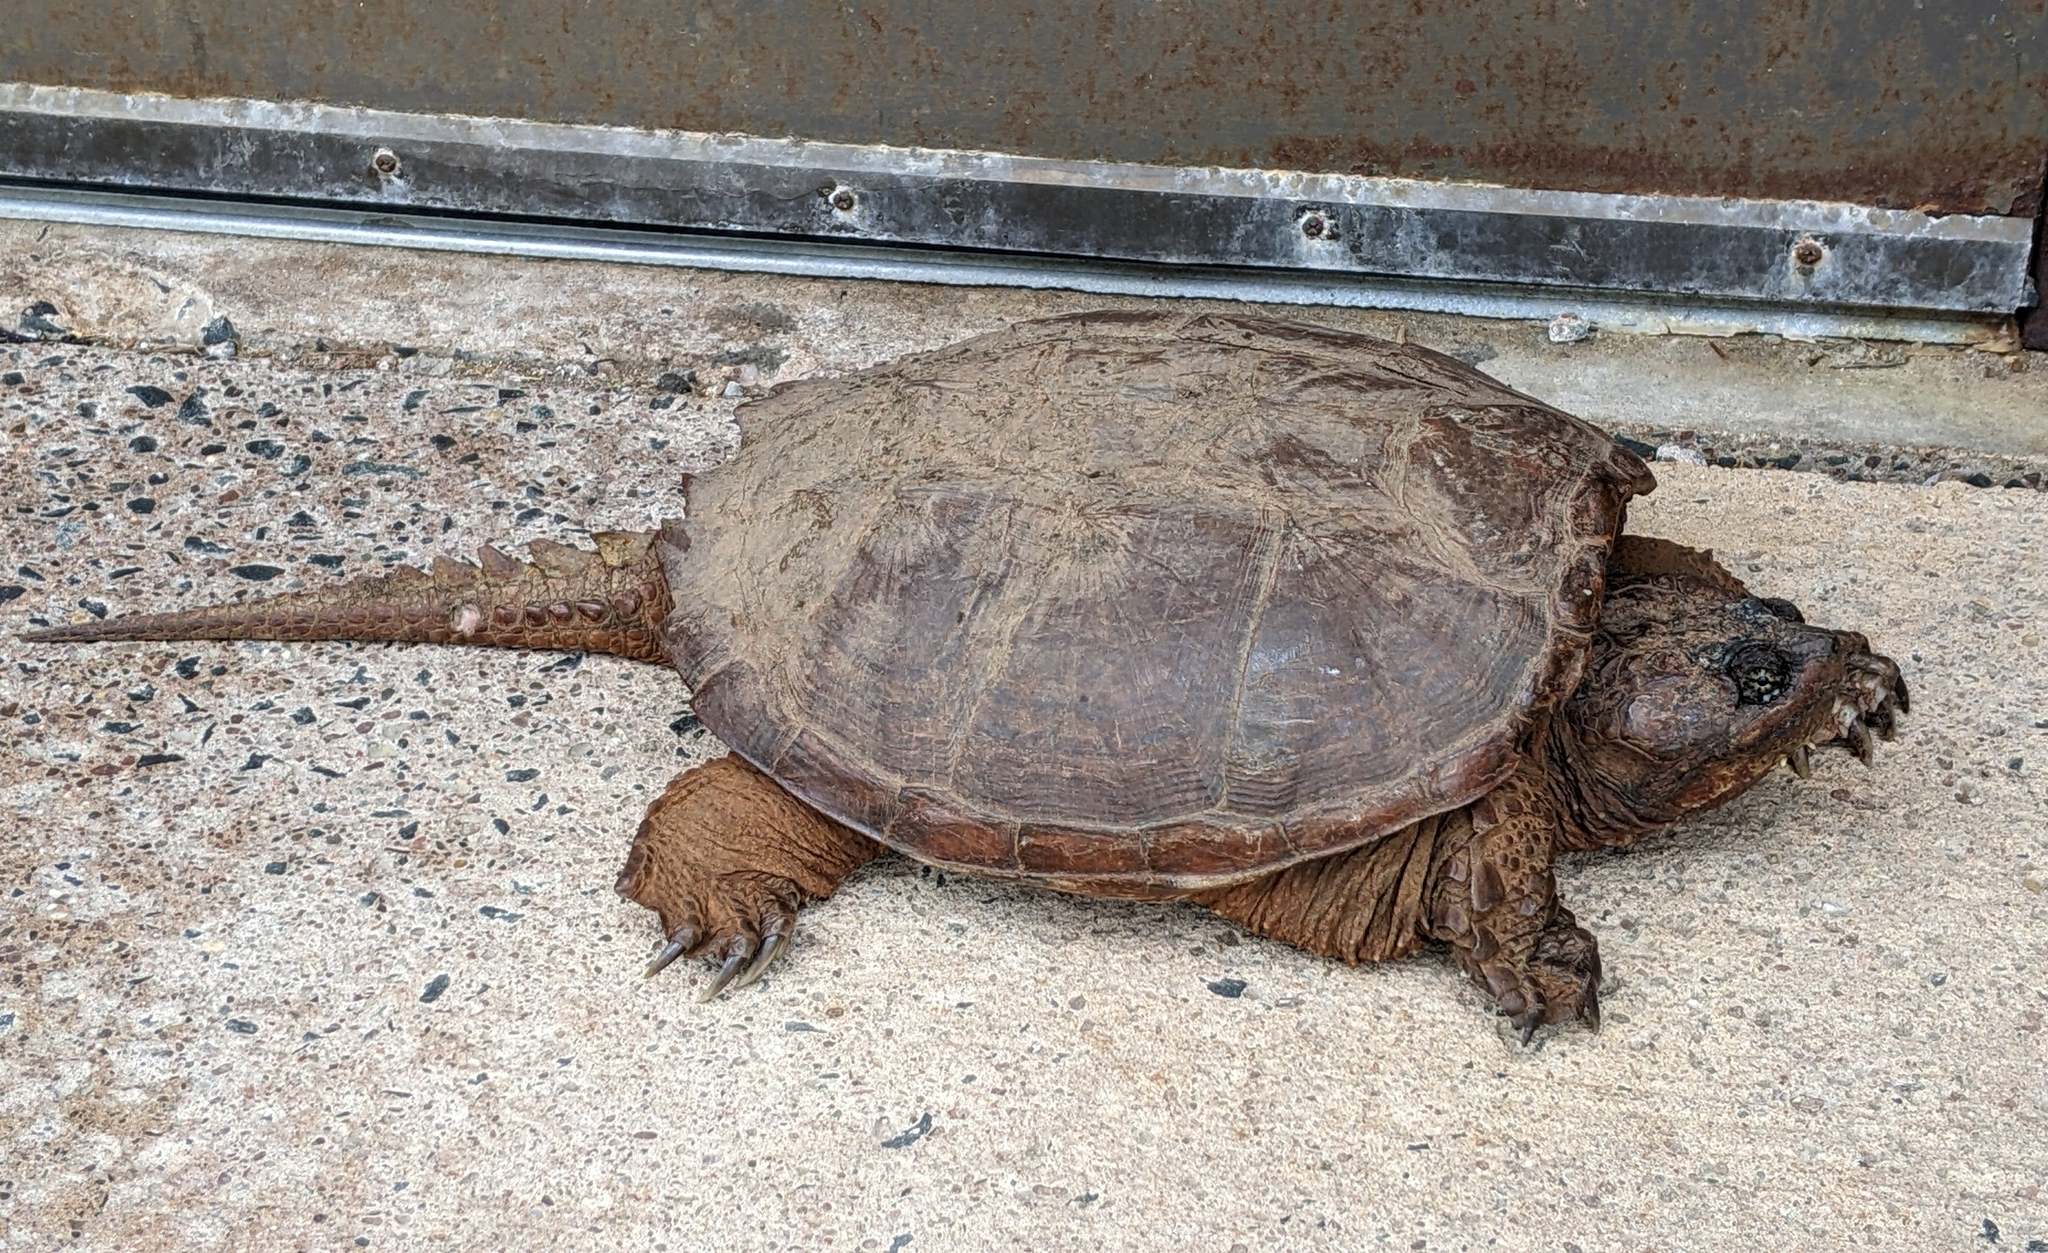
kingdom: Animalia
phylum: Chordata
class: Testudines
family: Chelydridae
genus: Chelydra
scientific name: Chelydra serpentina
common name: Common snapping turtle
